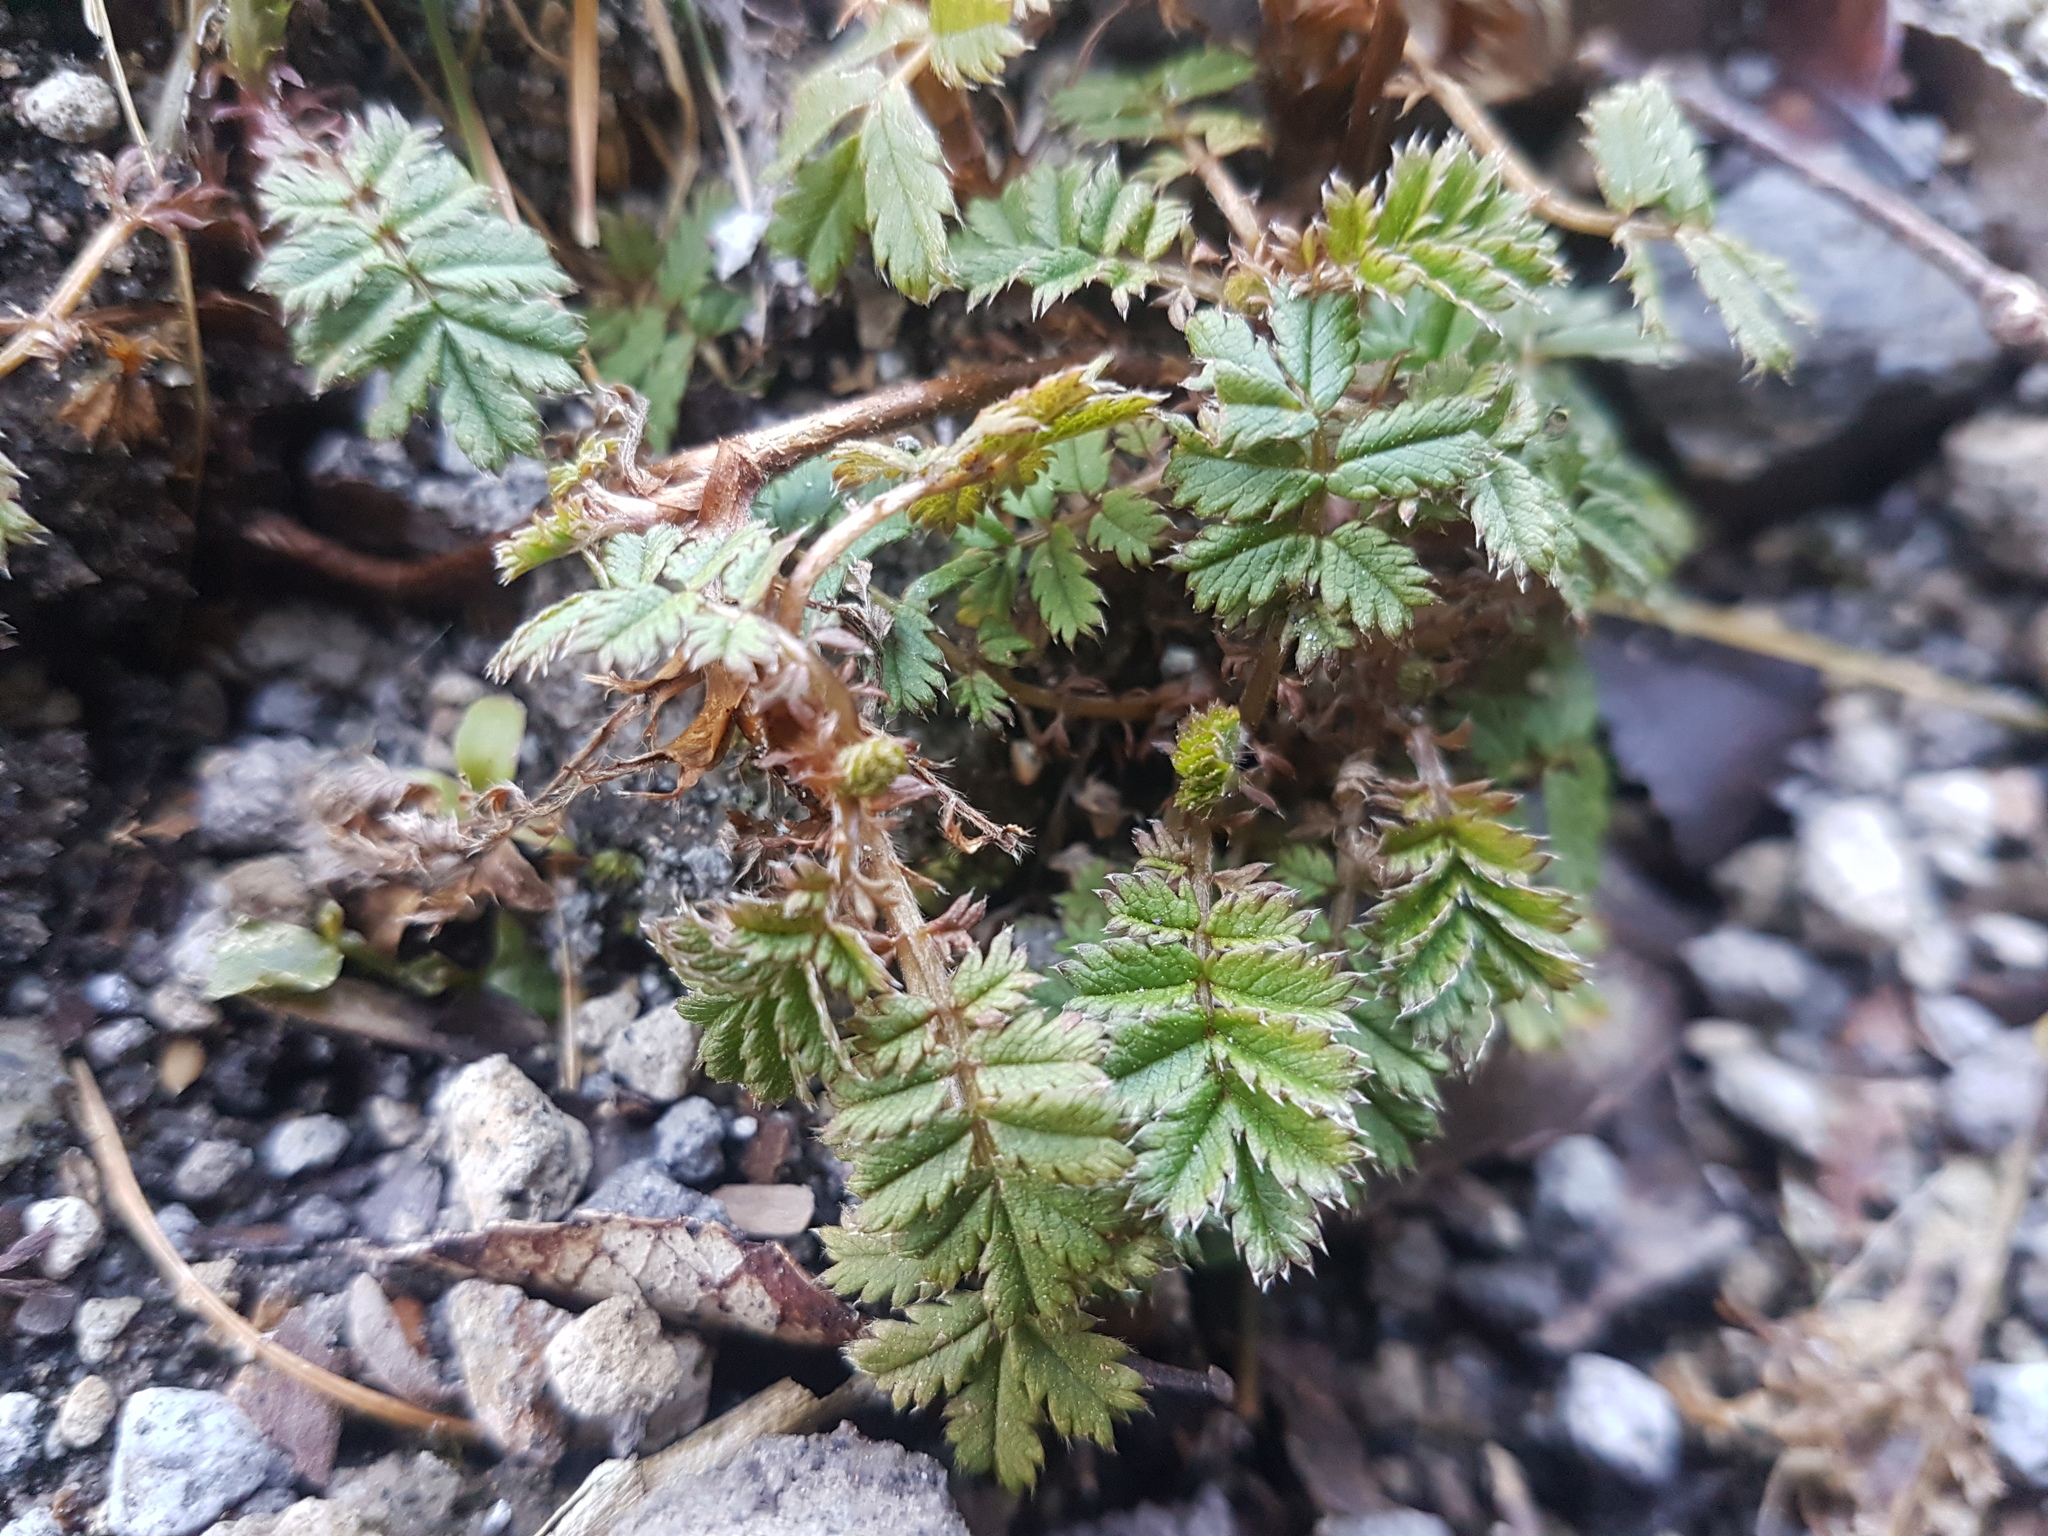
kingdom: Plantae
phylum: Tracheophyta
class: Magnoliopsida
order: Rosales
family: Rosaceae
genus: Acaena
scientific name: Acaena anserinifolia
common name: Bronze pirri-pirri-bur
